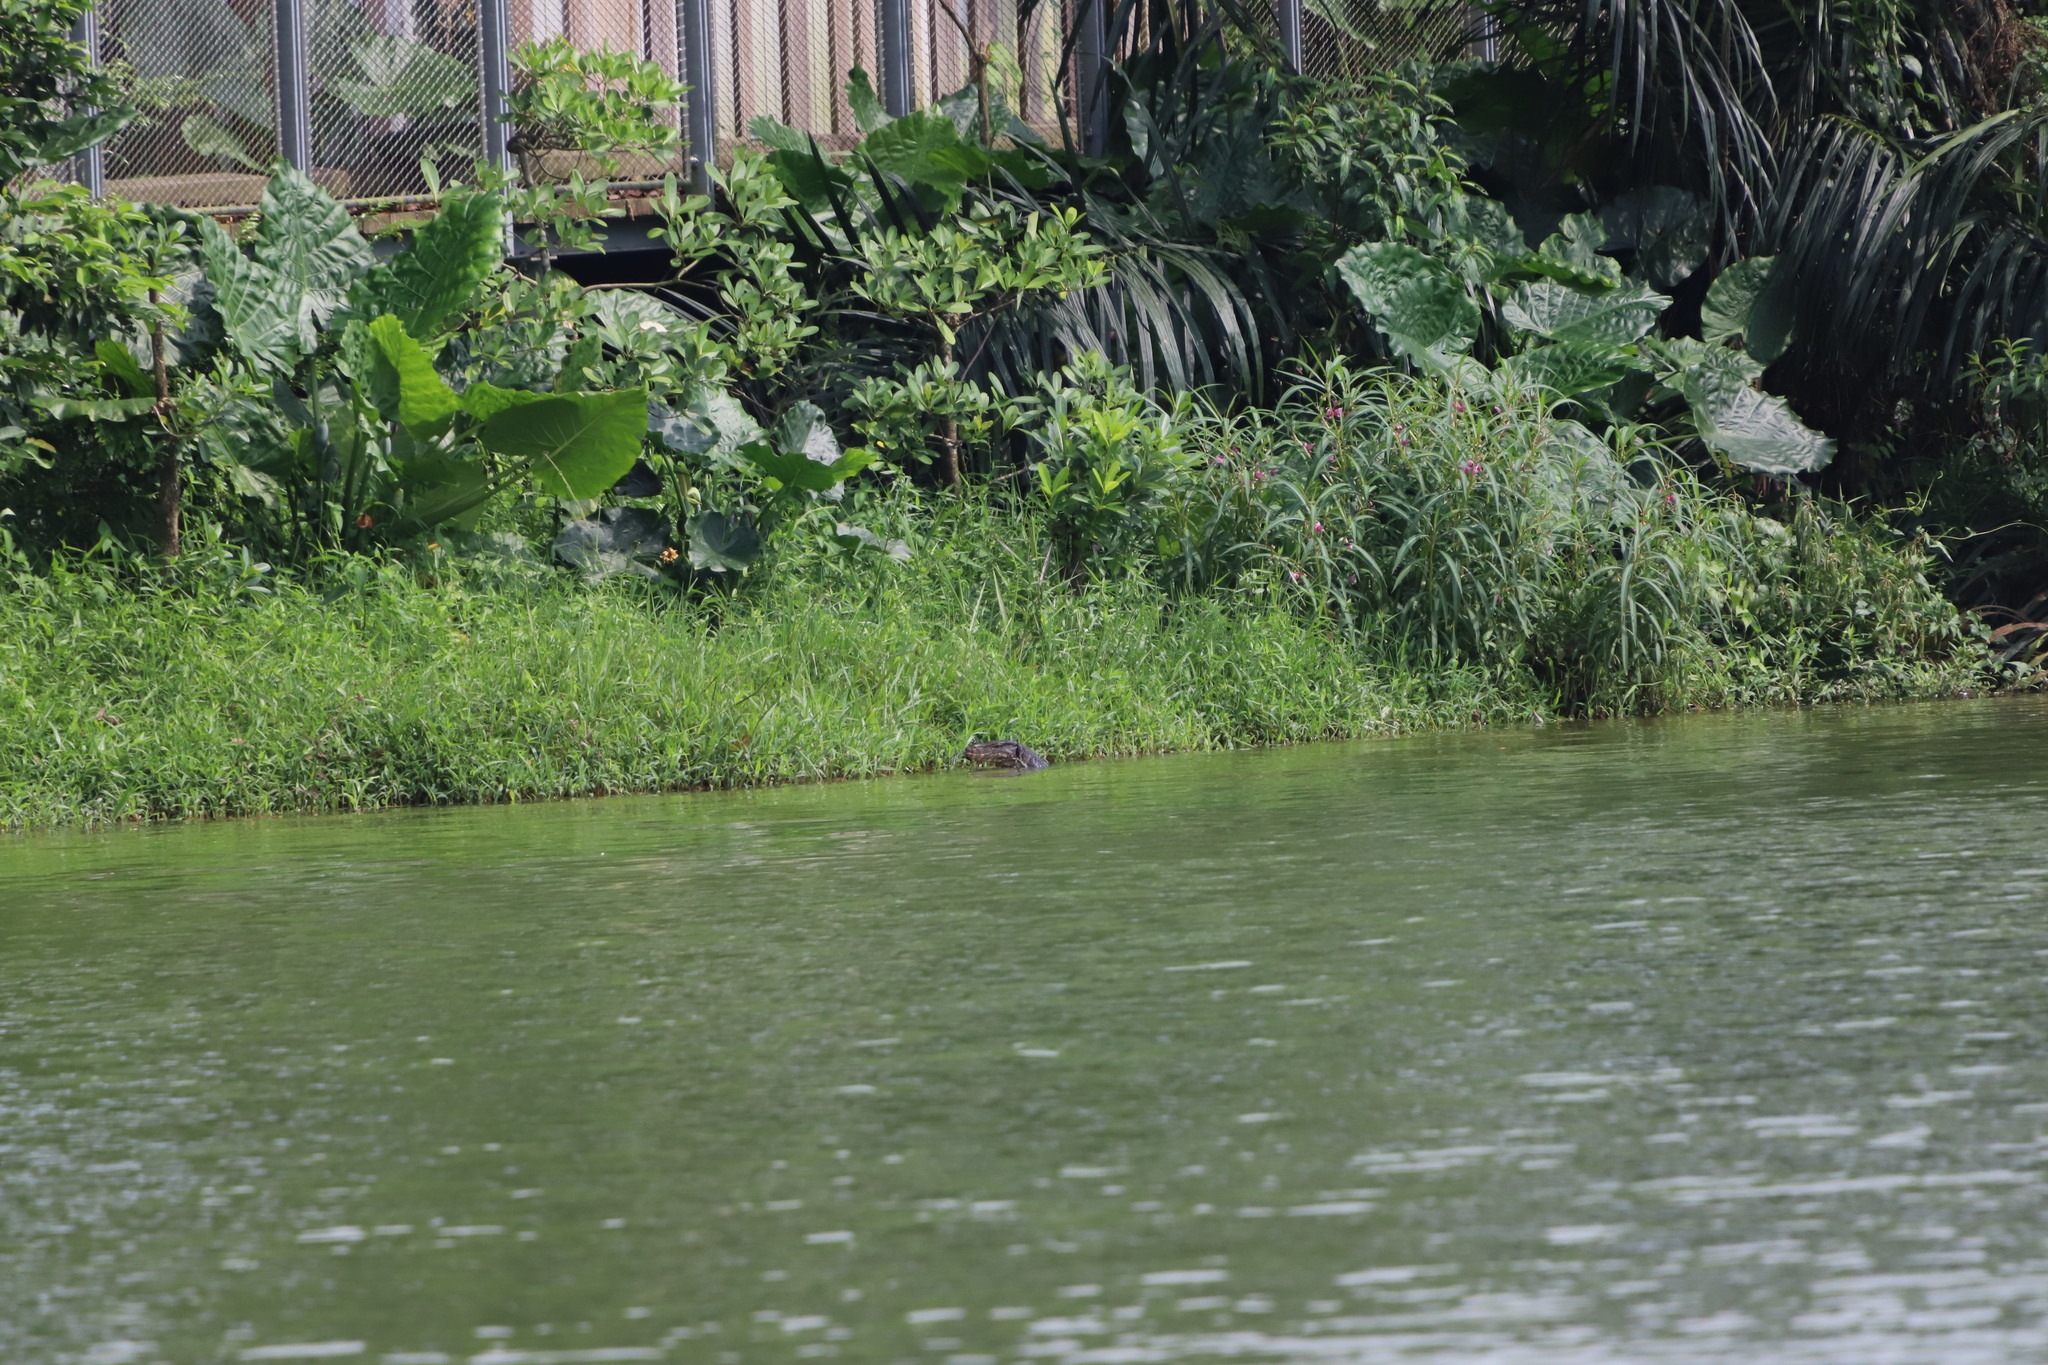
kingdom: Animalia
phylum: Chordata
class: Squamata
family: Varanidae
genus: Varanus
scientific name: Varanus salvator
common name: Common water monitor
